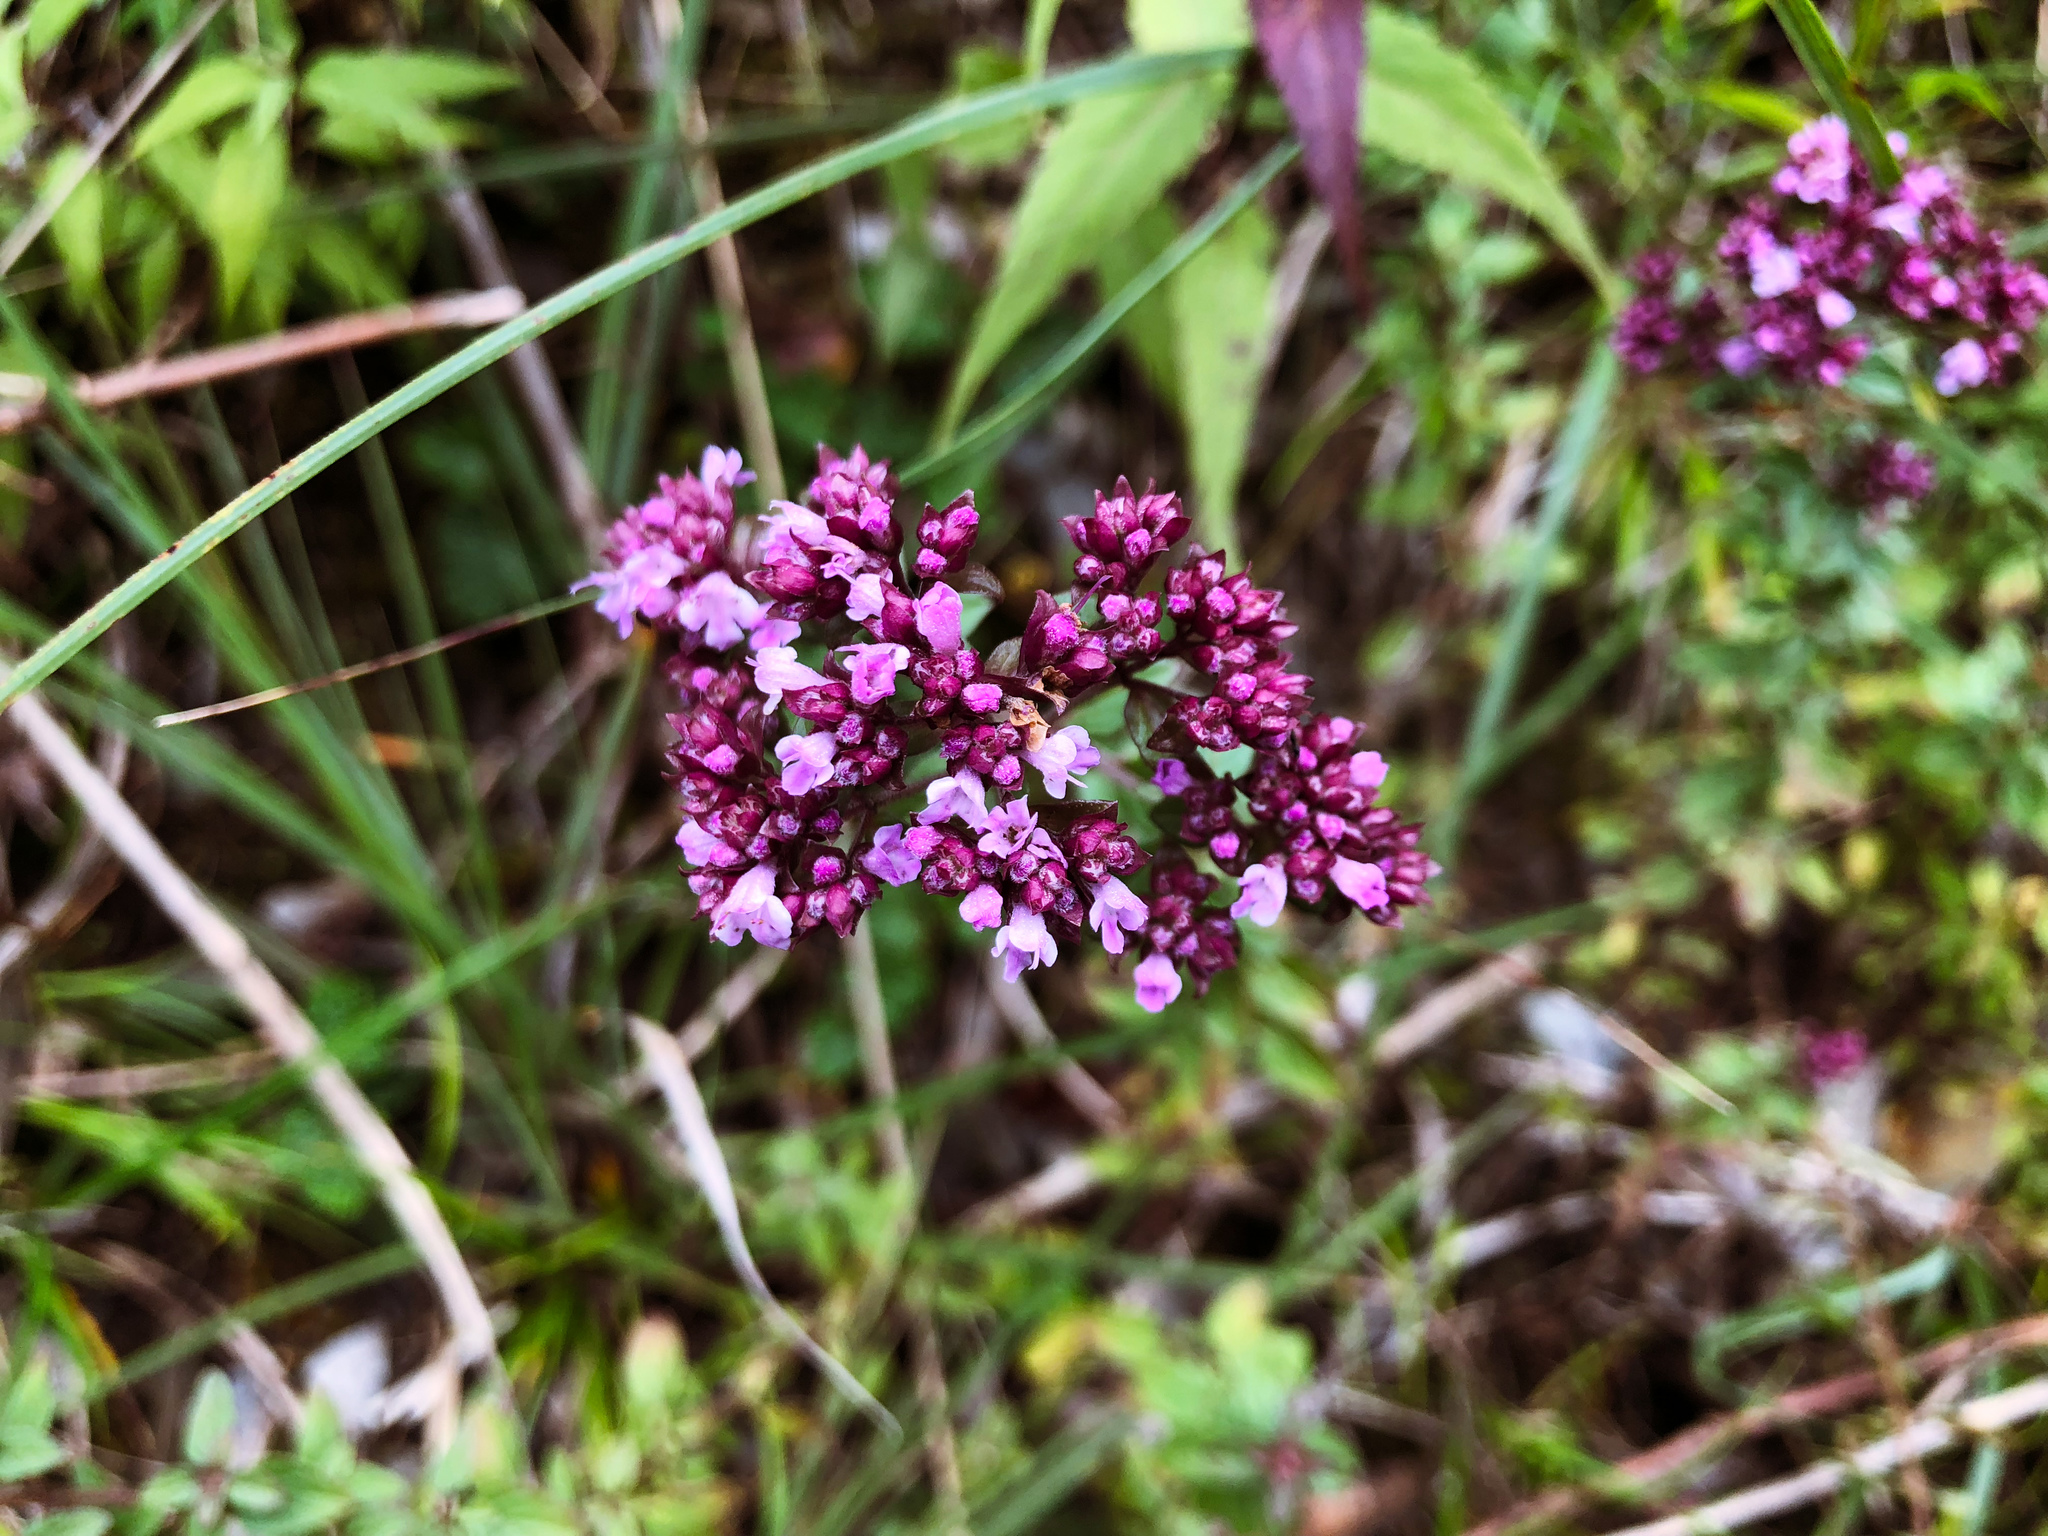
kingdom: Plantae
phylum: Tracheophyta
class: Magnoliopsida
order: Lamiales
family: Lamiaceae
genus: Origanum
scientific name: Origanum vulgare
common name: Wild marjoram
